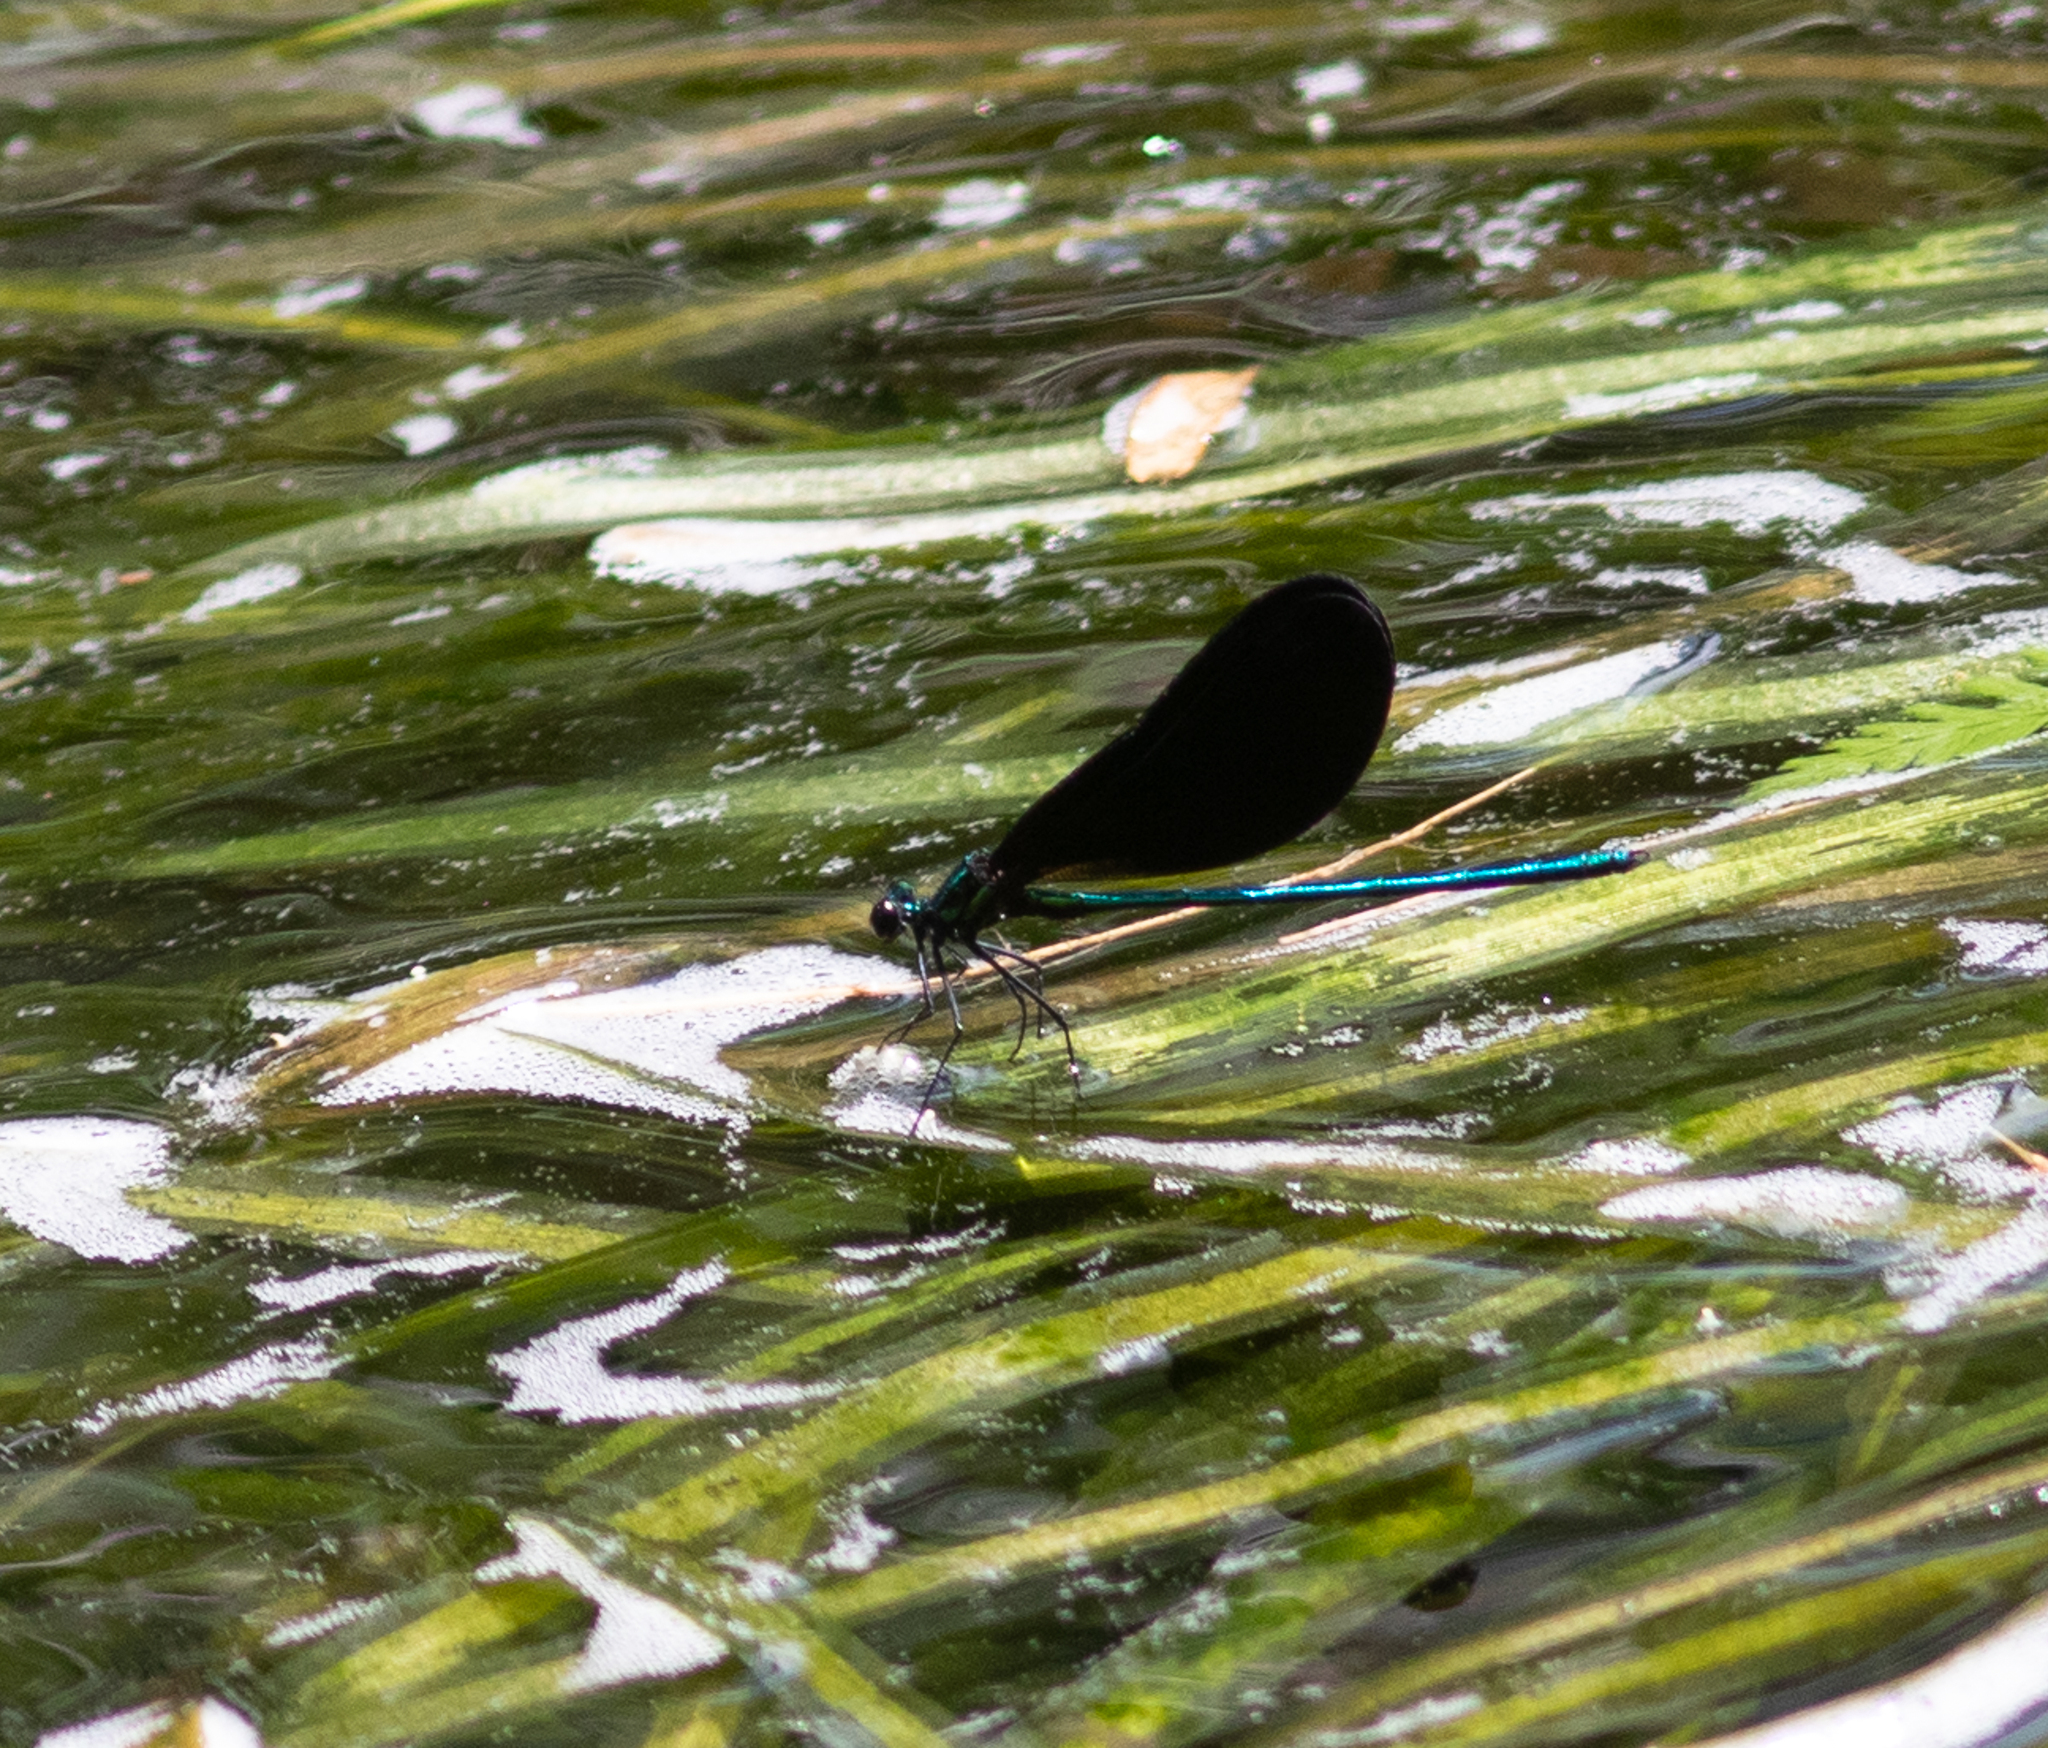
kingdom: Animalia
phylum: Arthropoda
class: Insecta
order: Odonata
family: Calopterygidae
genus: Calopteryx
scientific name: Calopteryx maculata
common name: Ebony jewelwing
